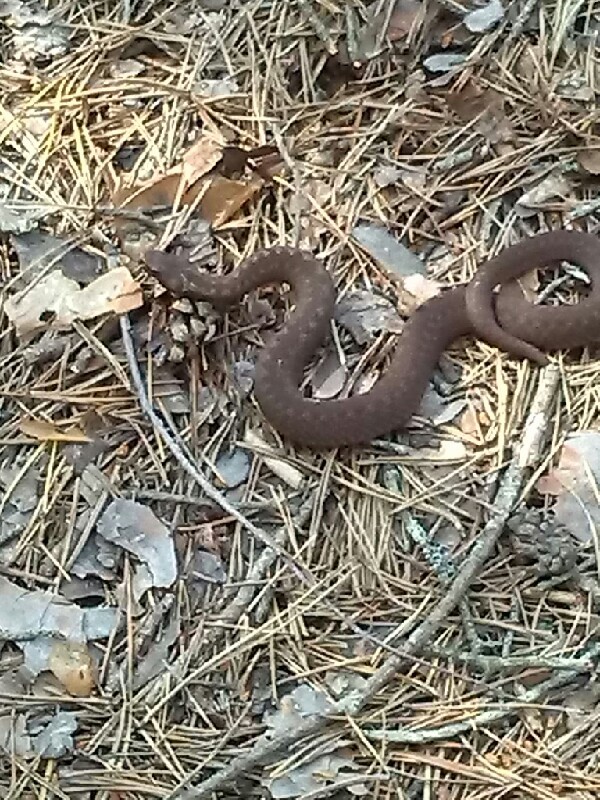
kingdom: Animalia
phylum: Chordata
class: Squamata
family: Viperidae
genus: Vipera
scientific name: Vipera berus
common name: Adder
